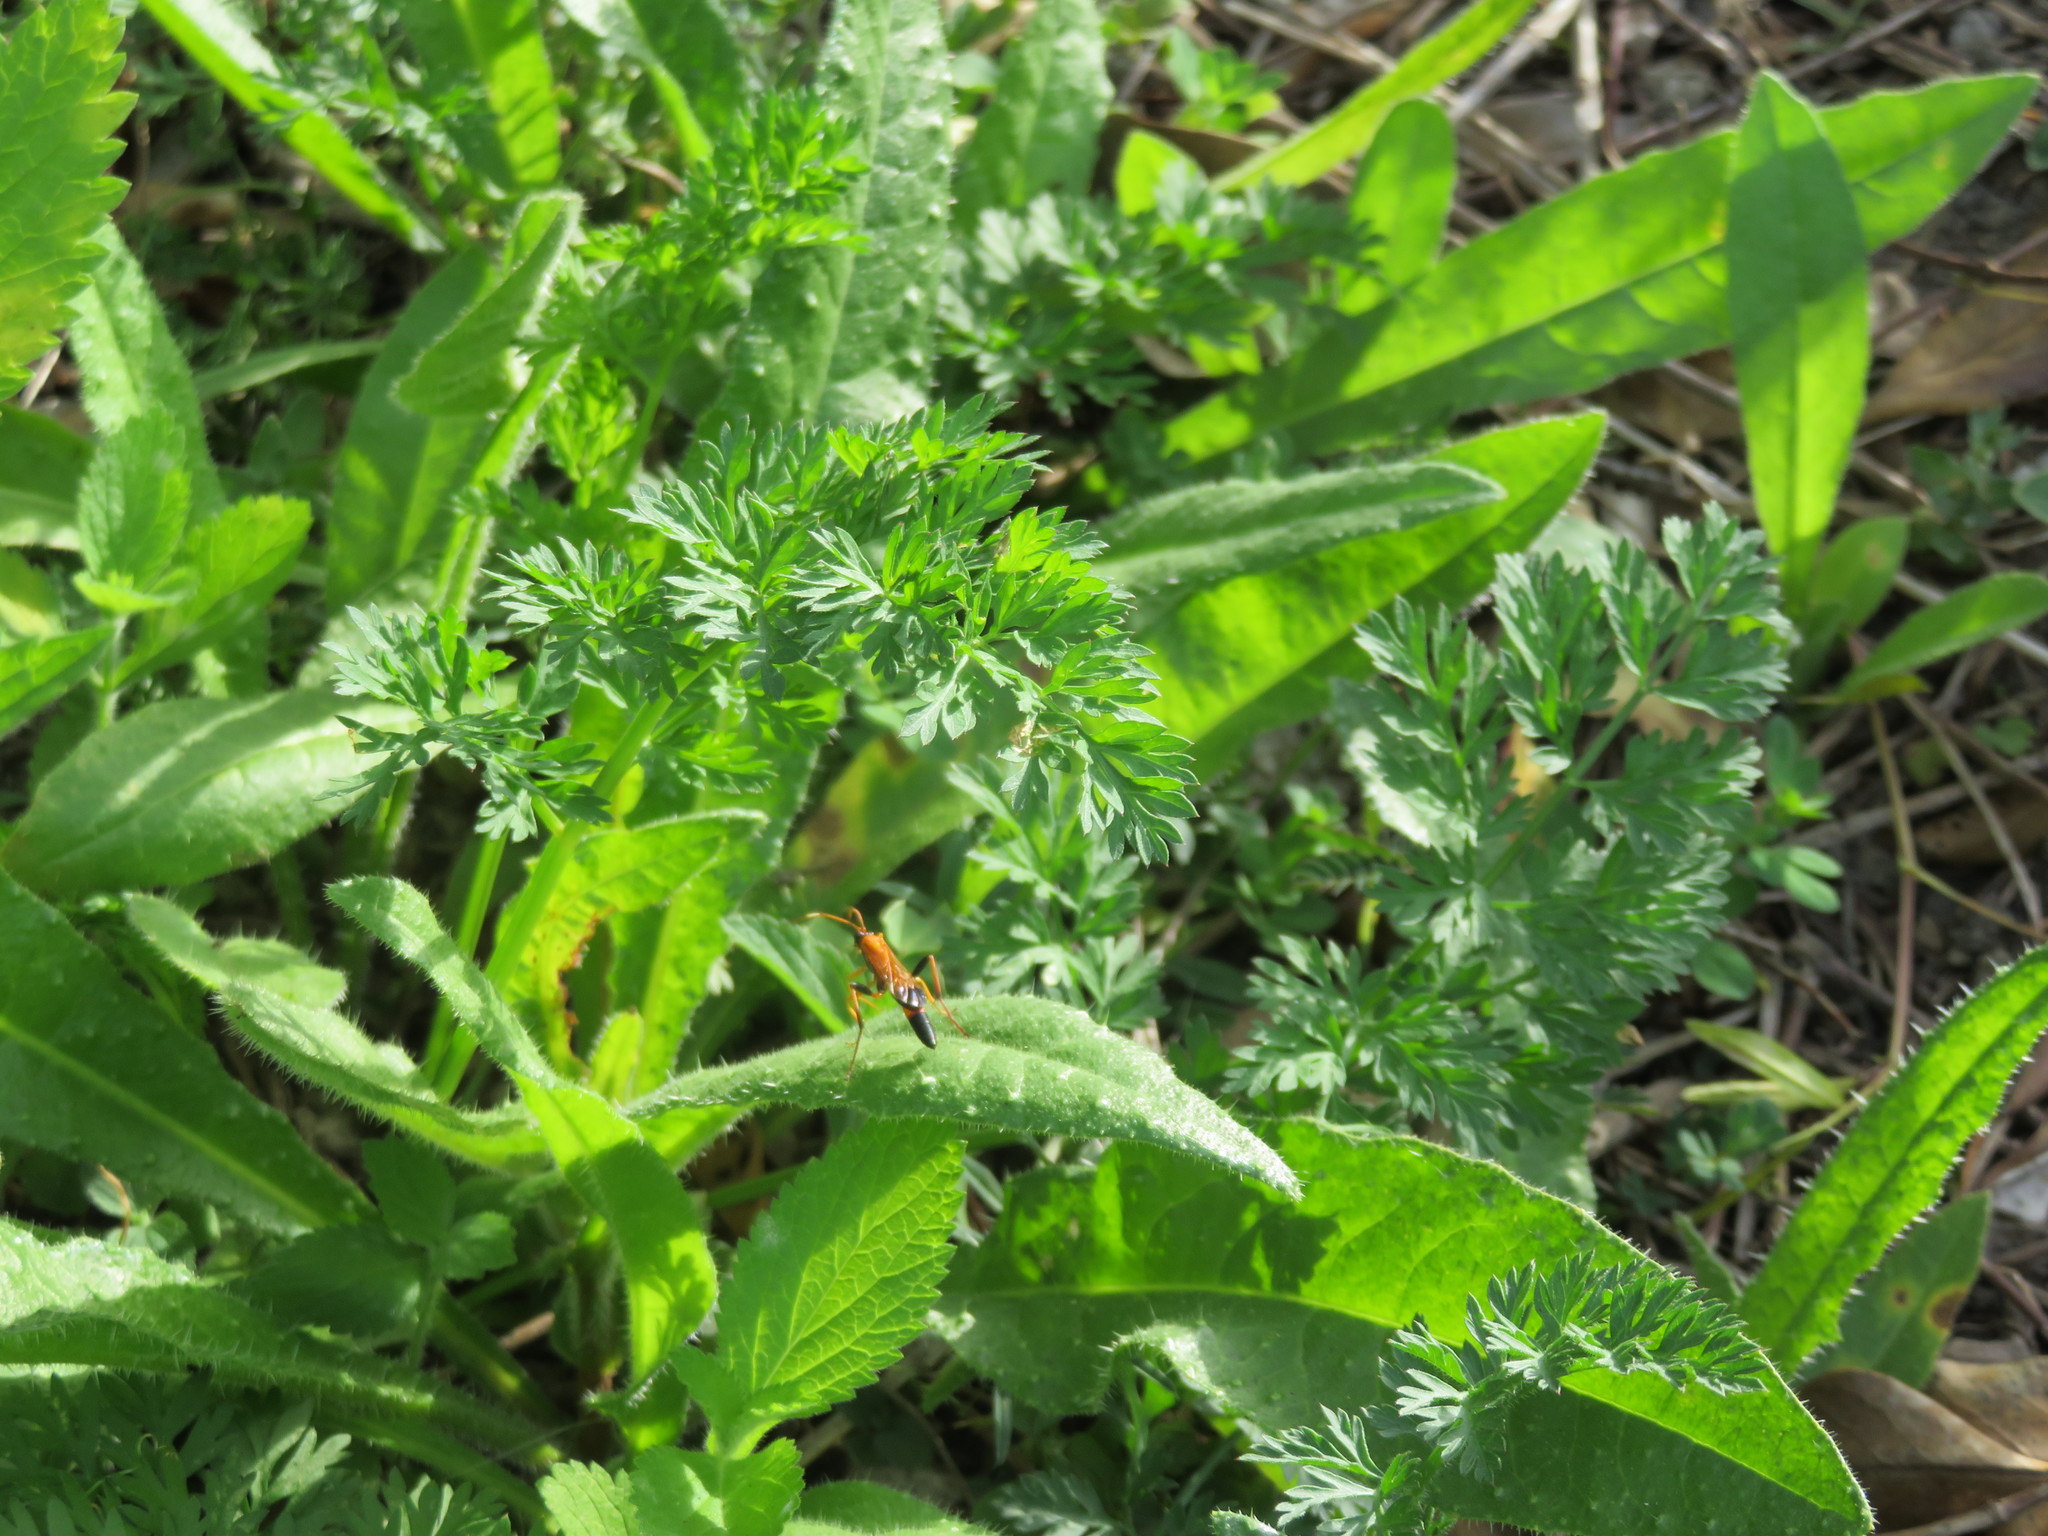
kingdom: Animalia
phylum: Arthropoda
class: Insecta
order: Hymenoptera
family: Ichneumonidae
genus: Ctenochares
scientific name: Ctenochares bicolorus
